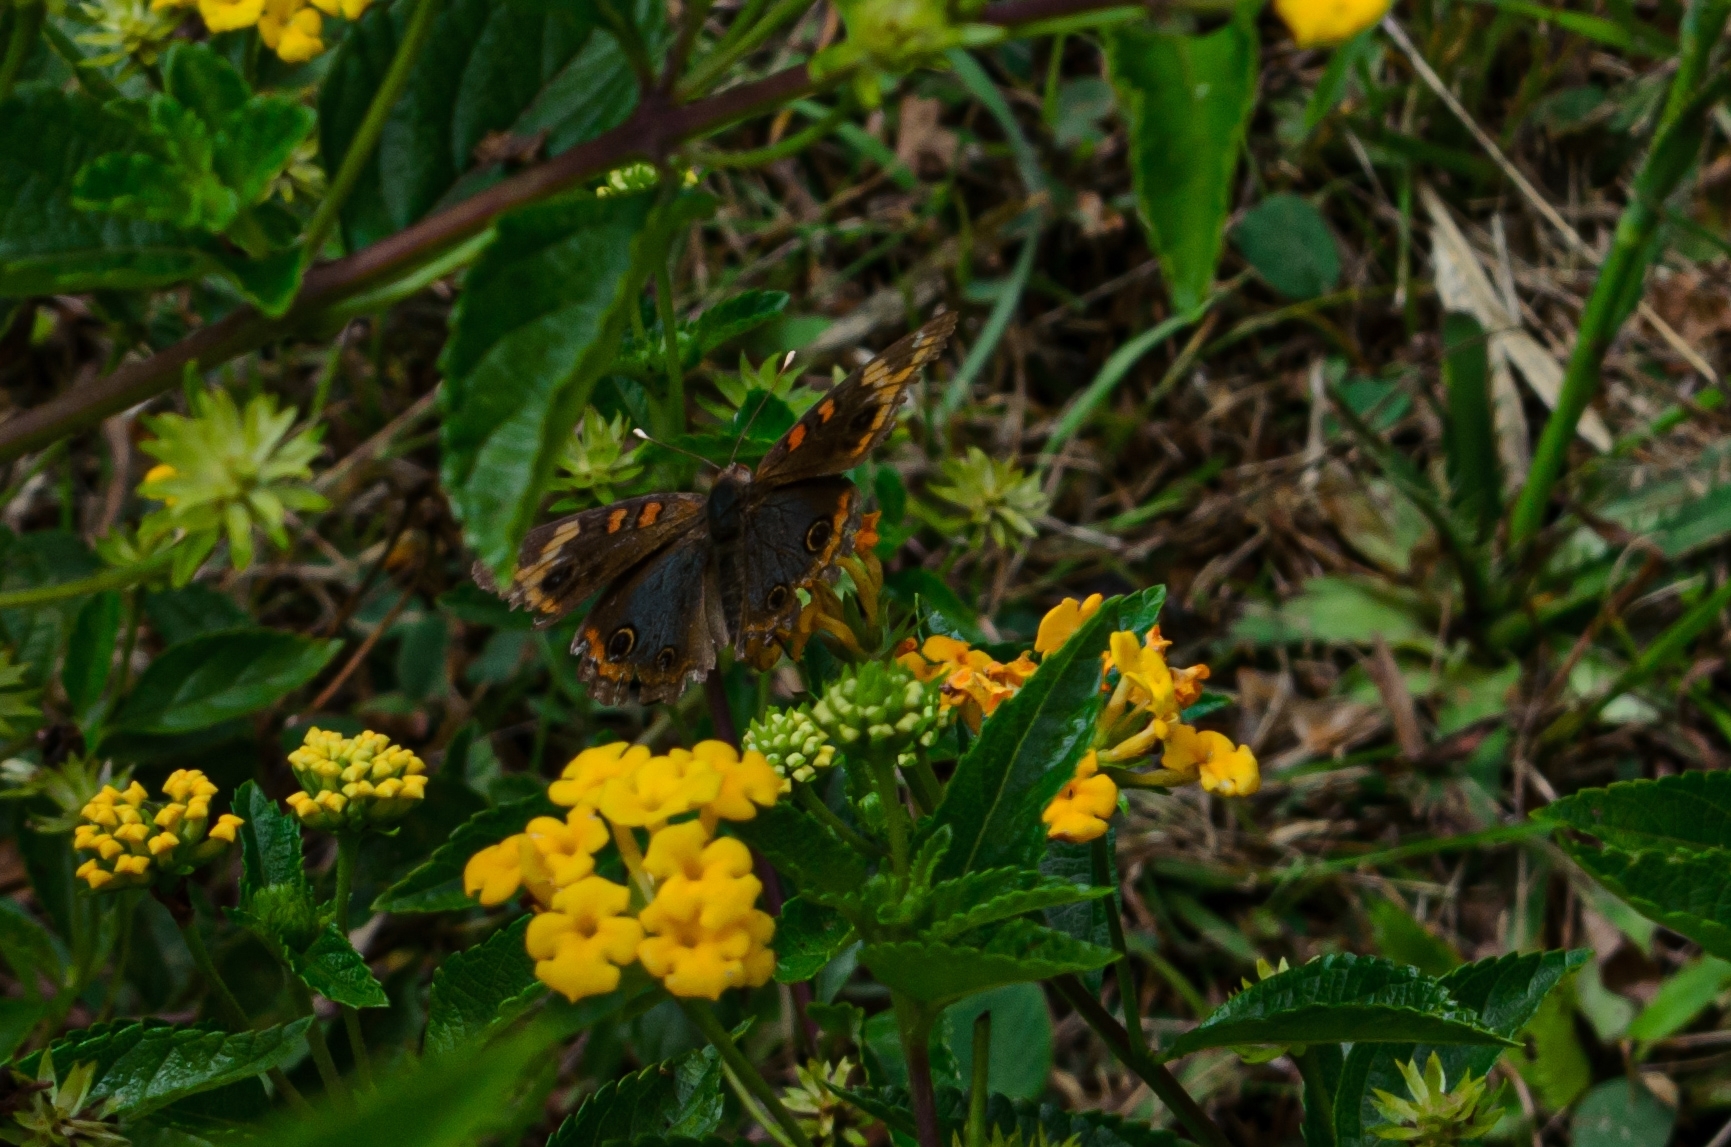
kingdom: Animalia
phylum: Arthropoda
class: Insecta
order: Lepidoptera
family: Nymphalidae
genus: Junonia
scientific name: Junonia evarete
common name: Black mangrove buckeye
